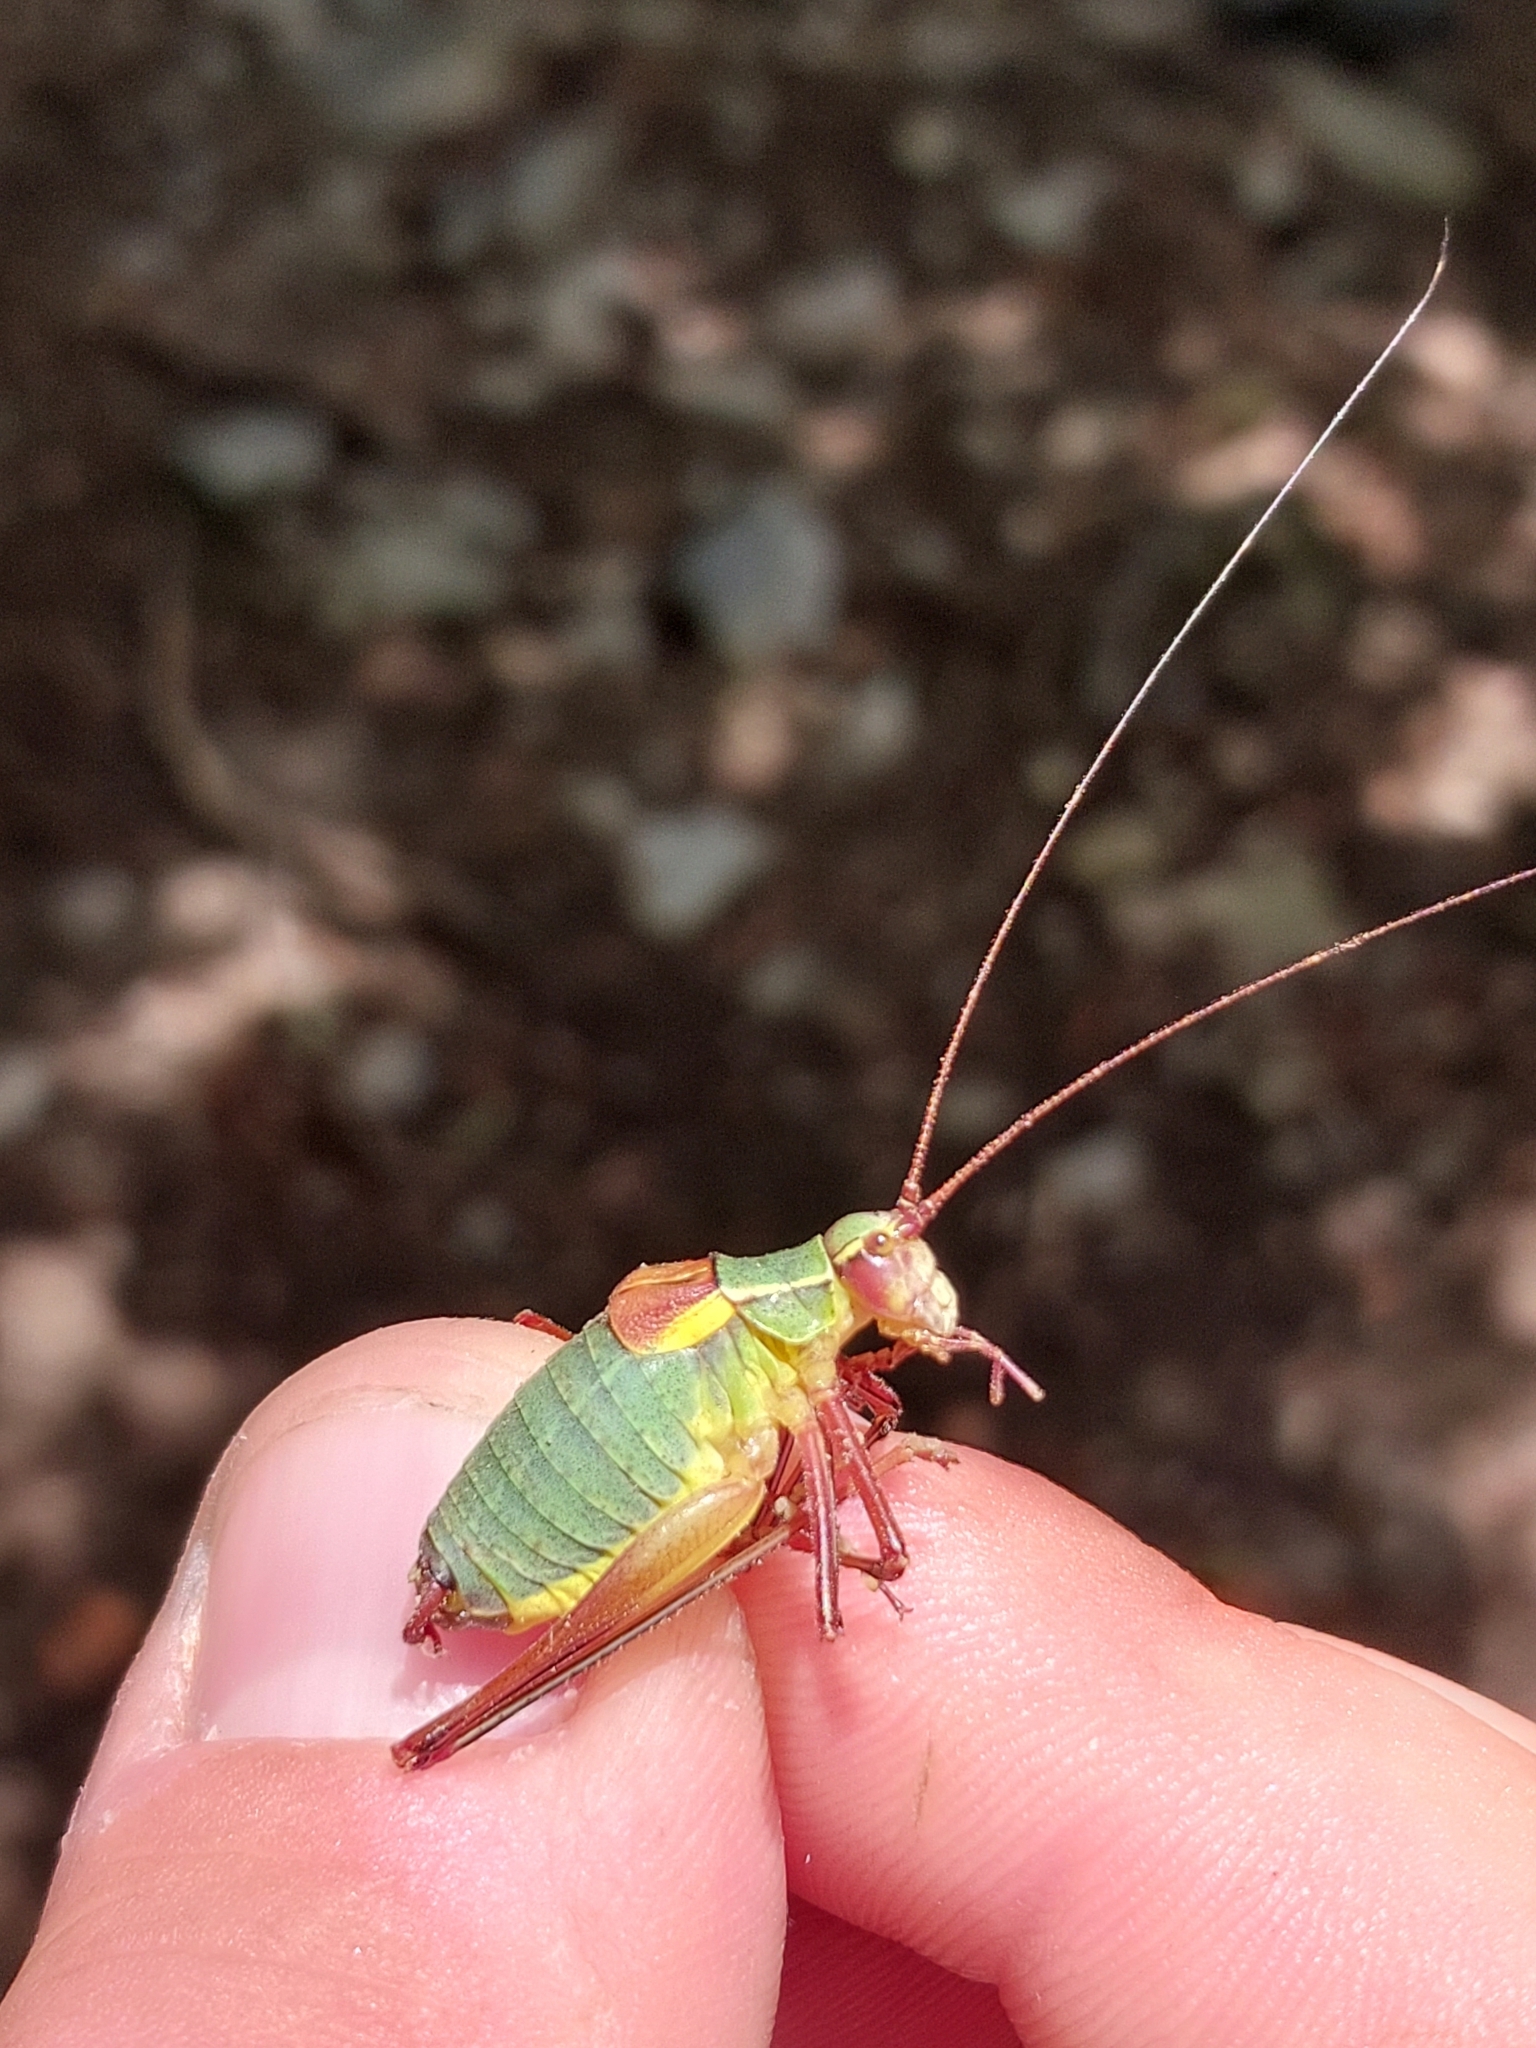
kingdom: Animalia
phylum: Arthropoda
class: Insecta
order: Orthoptera
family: Tettigoniidae
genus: Barbitistes
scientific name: Barbitistes obtusus
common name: Alpine saw bush-cricket
